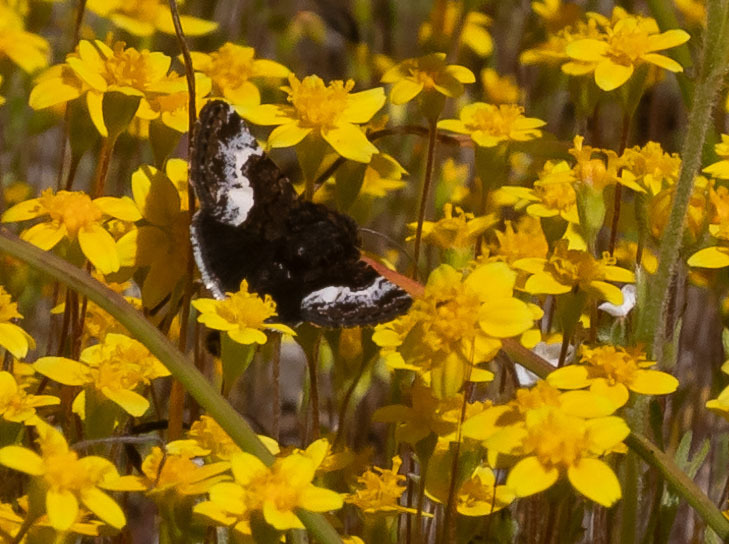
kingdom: Animalia
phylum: Arthropoda
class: Insecta
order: Lepidoptera
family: Noctuidae
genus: Stylopoda
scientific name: Stylopoda cephalica
